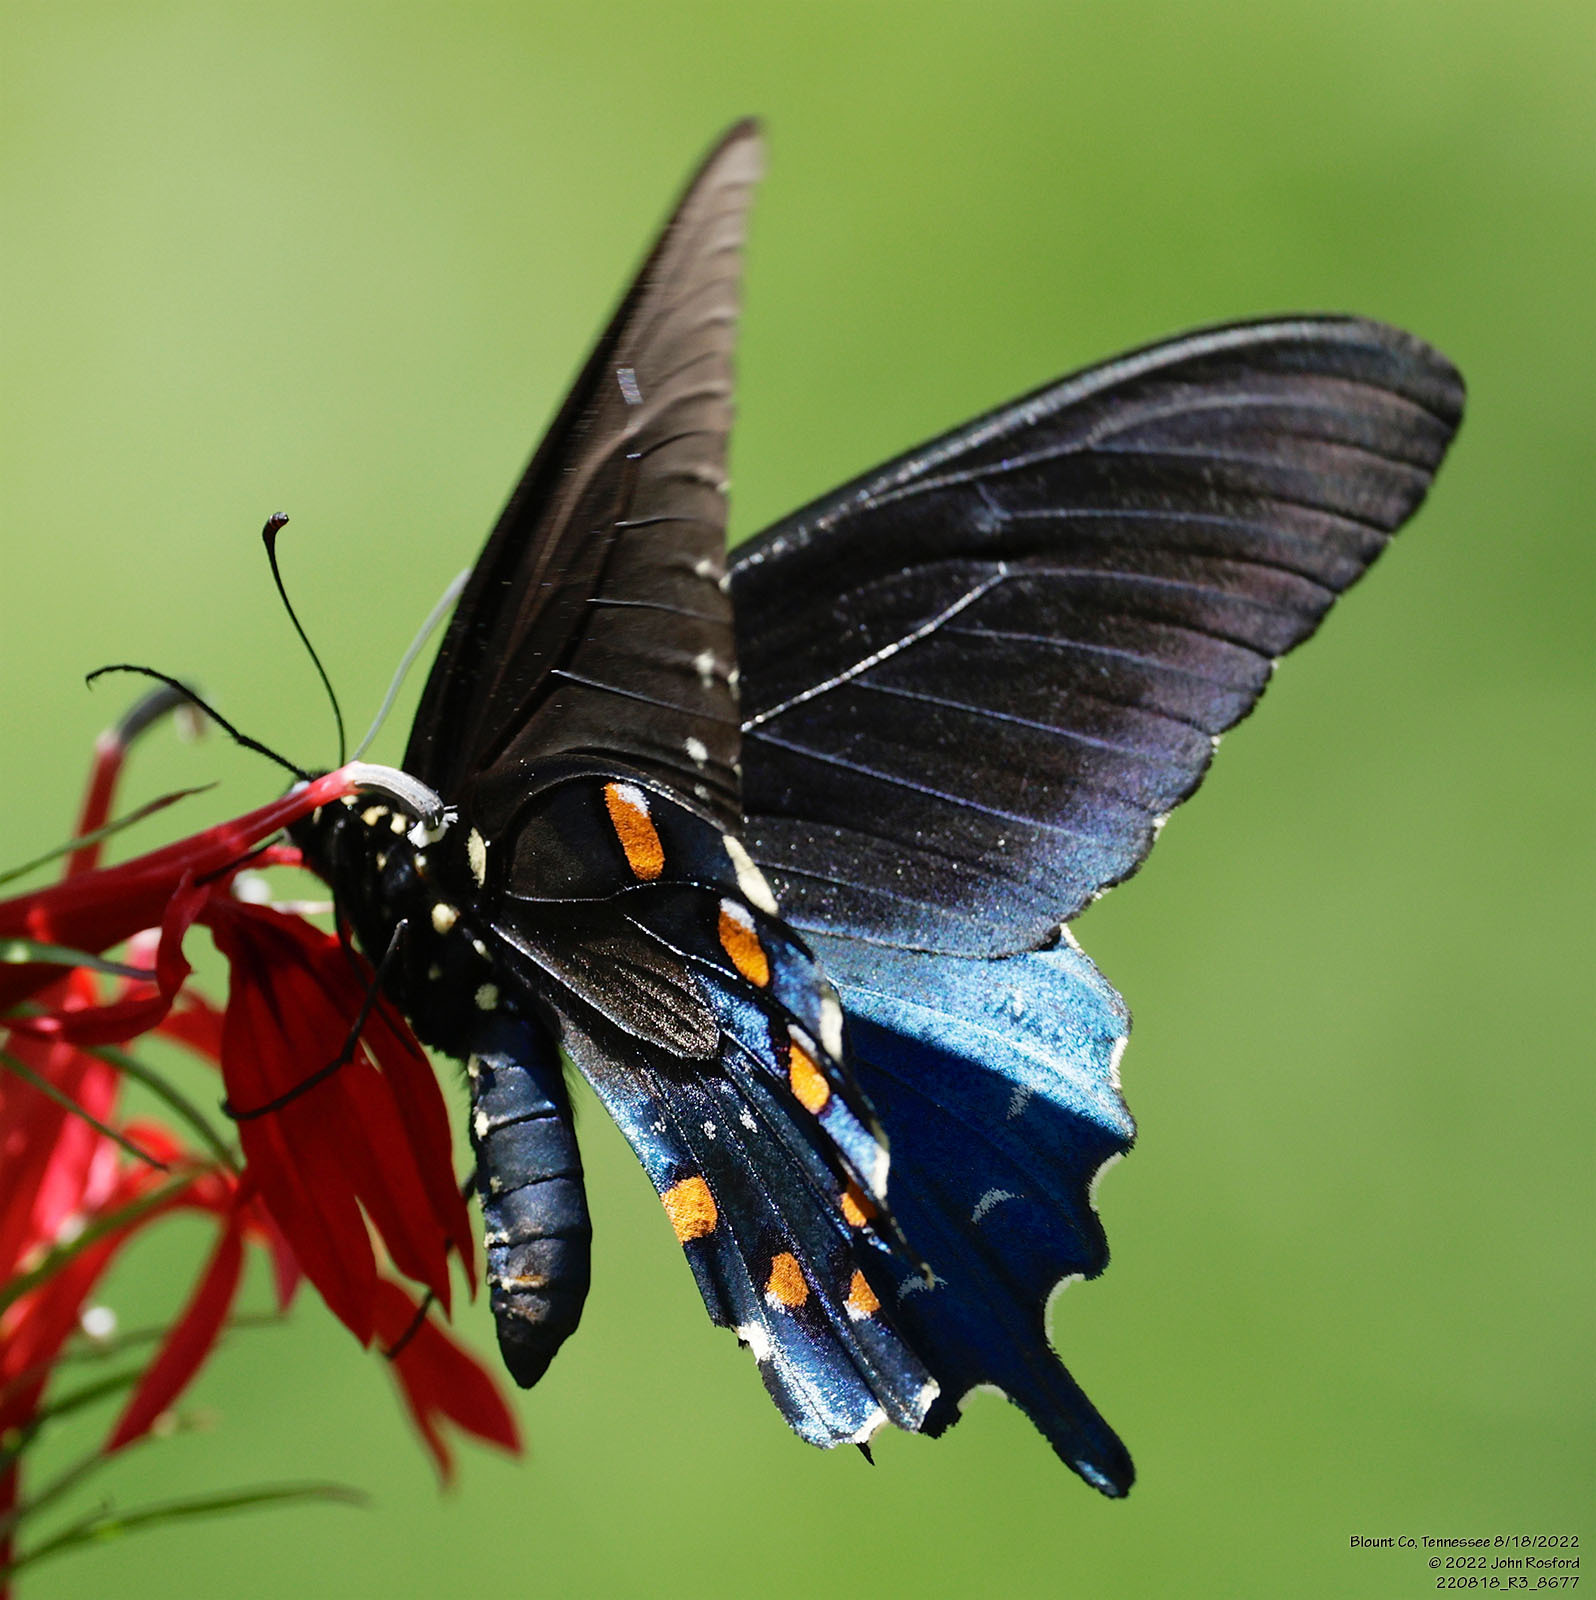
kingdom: Animalia
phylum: Arthropoda
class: Insecta
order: Lepidoptera
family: Papilionidae
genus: Battus
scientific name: Battus philenor
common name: Pipevine swallowtail
